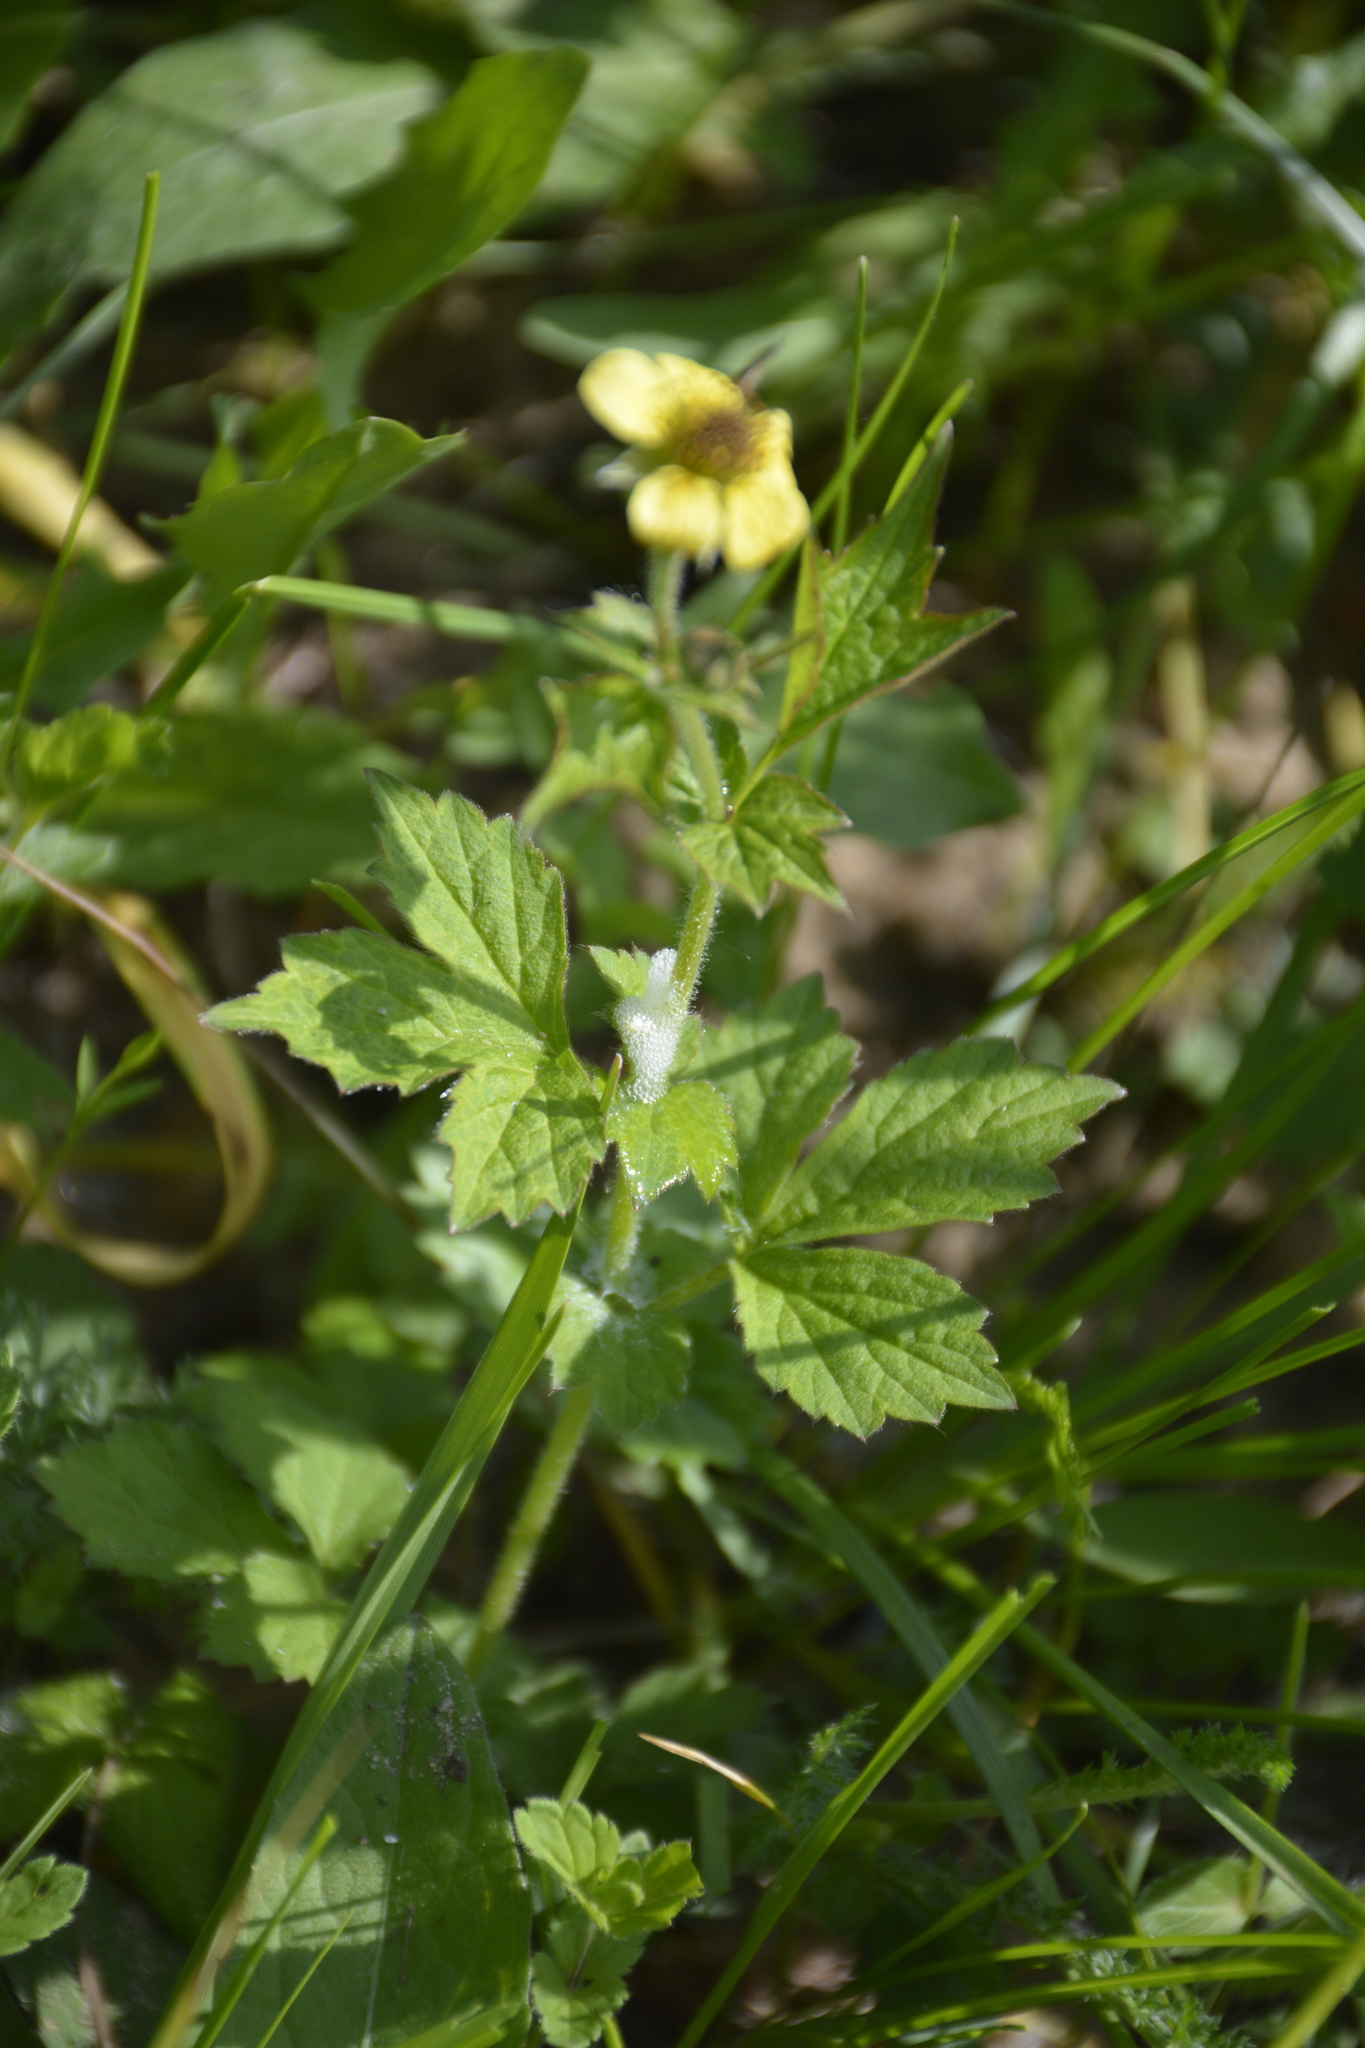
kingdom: Plantae
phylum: Tracheophyta
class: Magnoliopsida
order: Rosales
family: Rosaceae
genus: Geum
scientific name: Geum urbanum
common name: Wood avens
